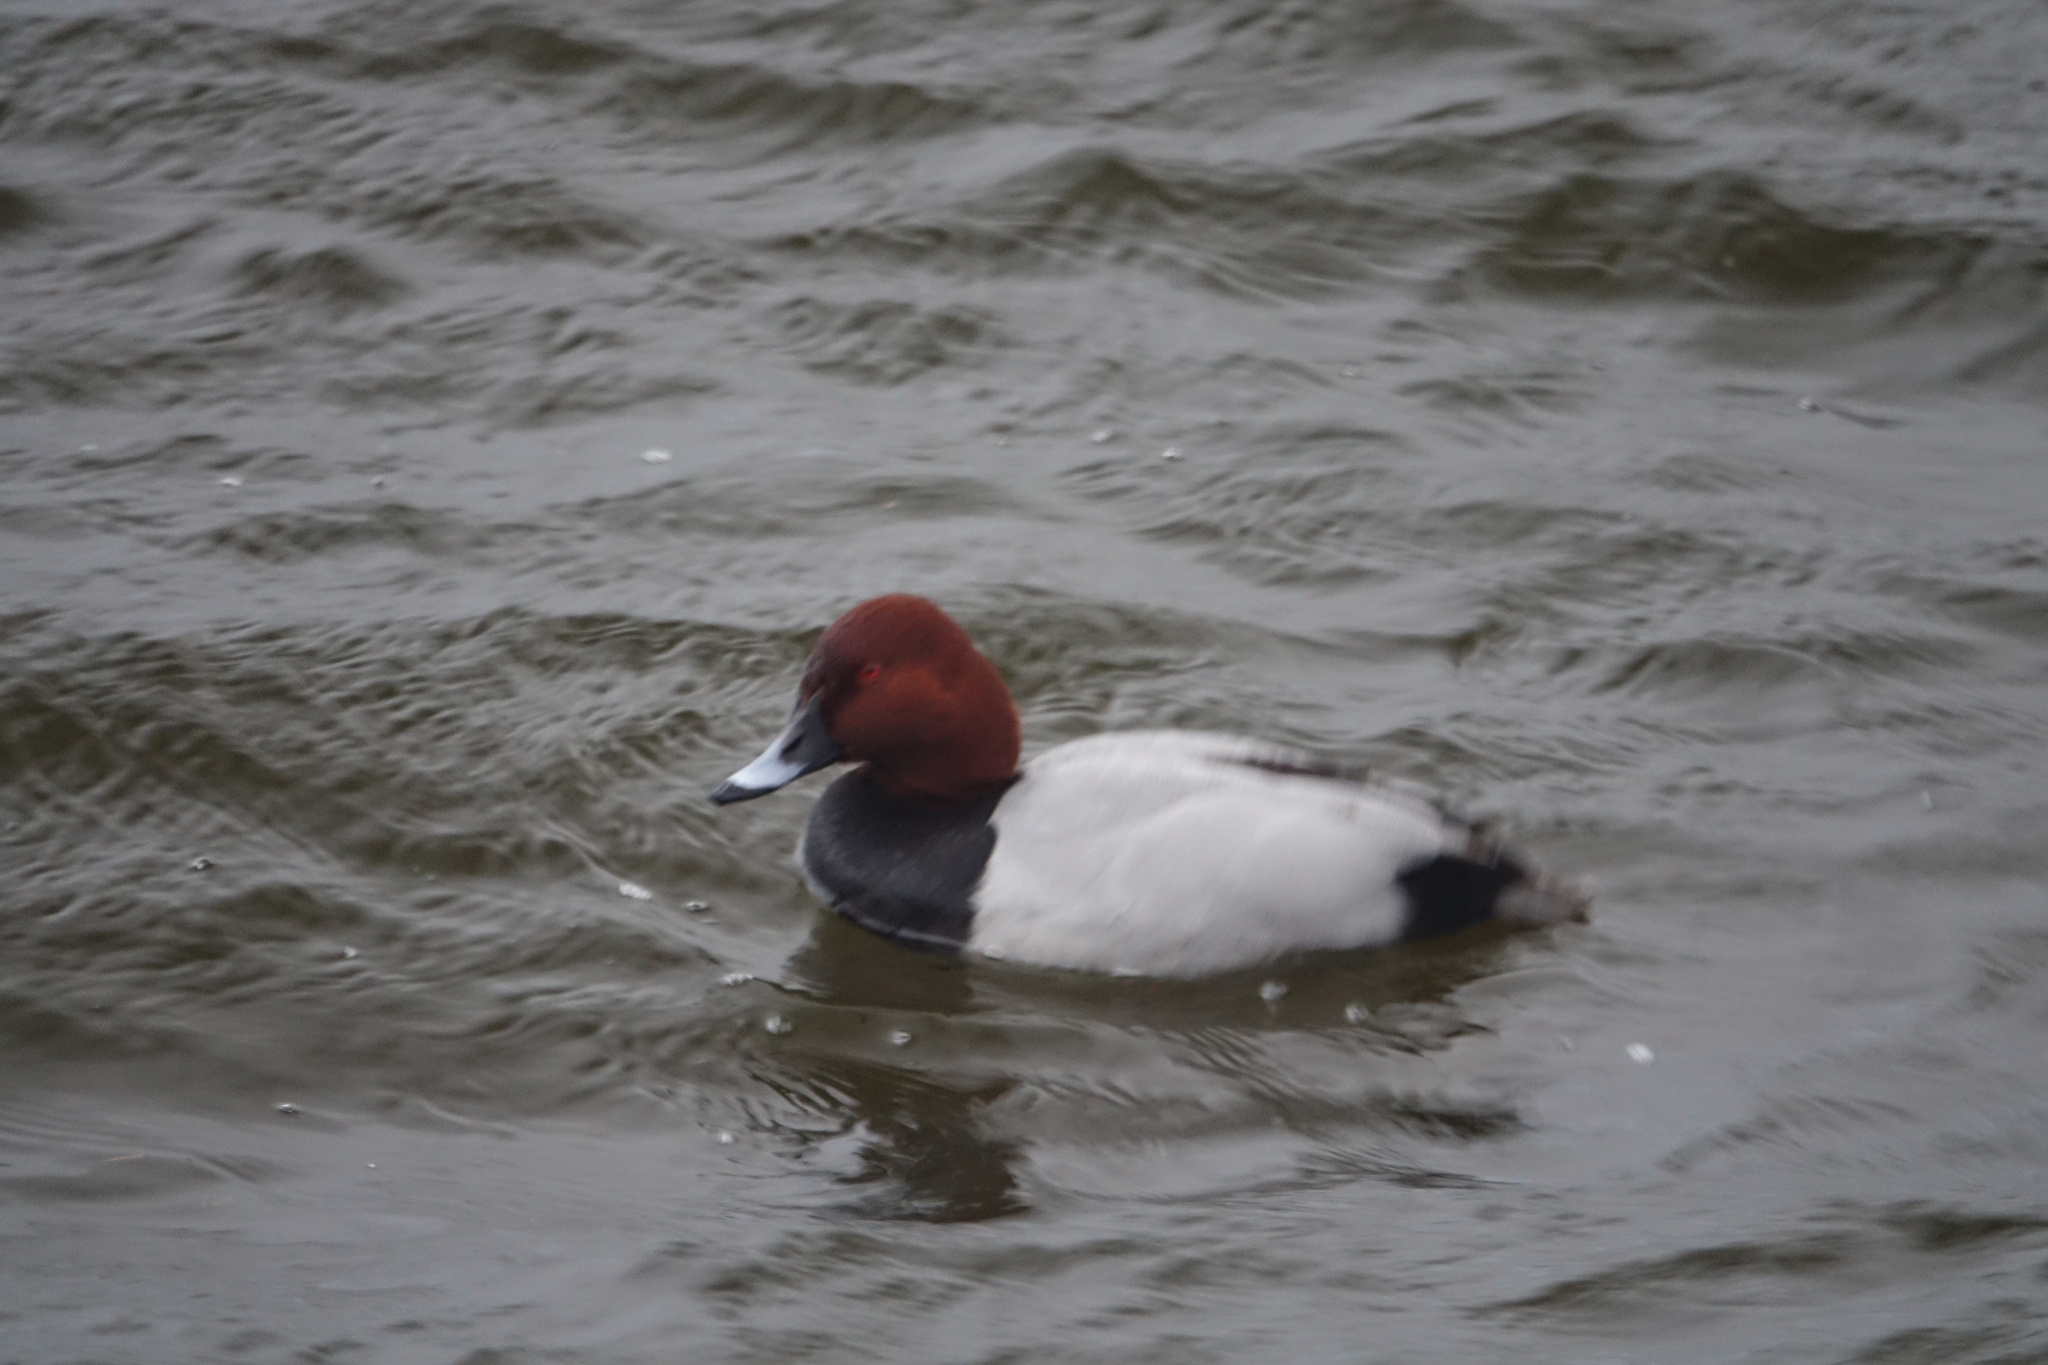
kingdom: Animalia
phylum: Chordata
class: Aves
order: Anseriformes
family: Anatidae
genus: Aythya
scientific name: Aythya ferina
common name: Common pochard
